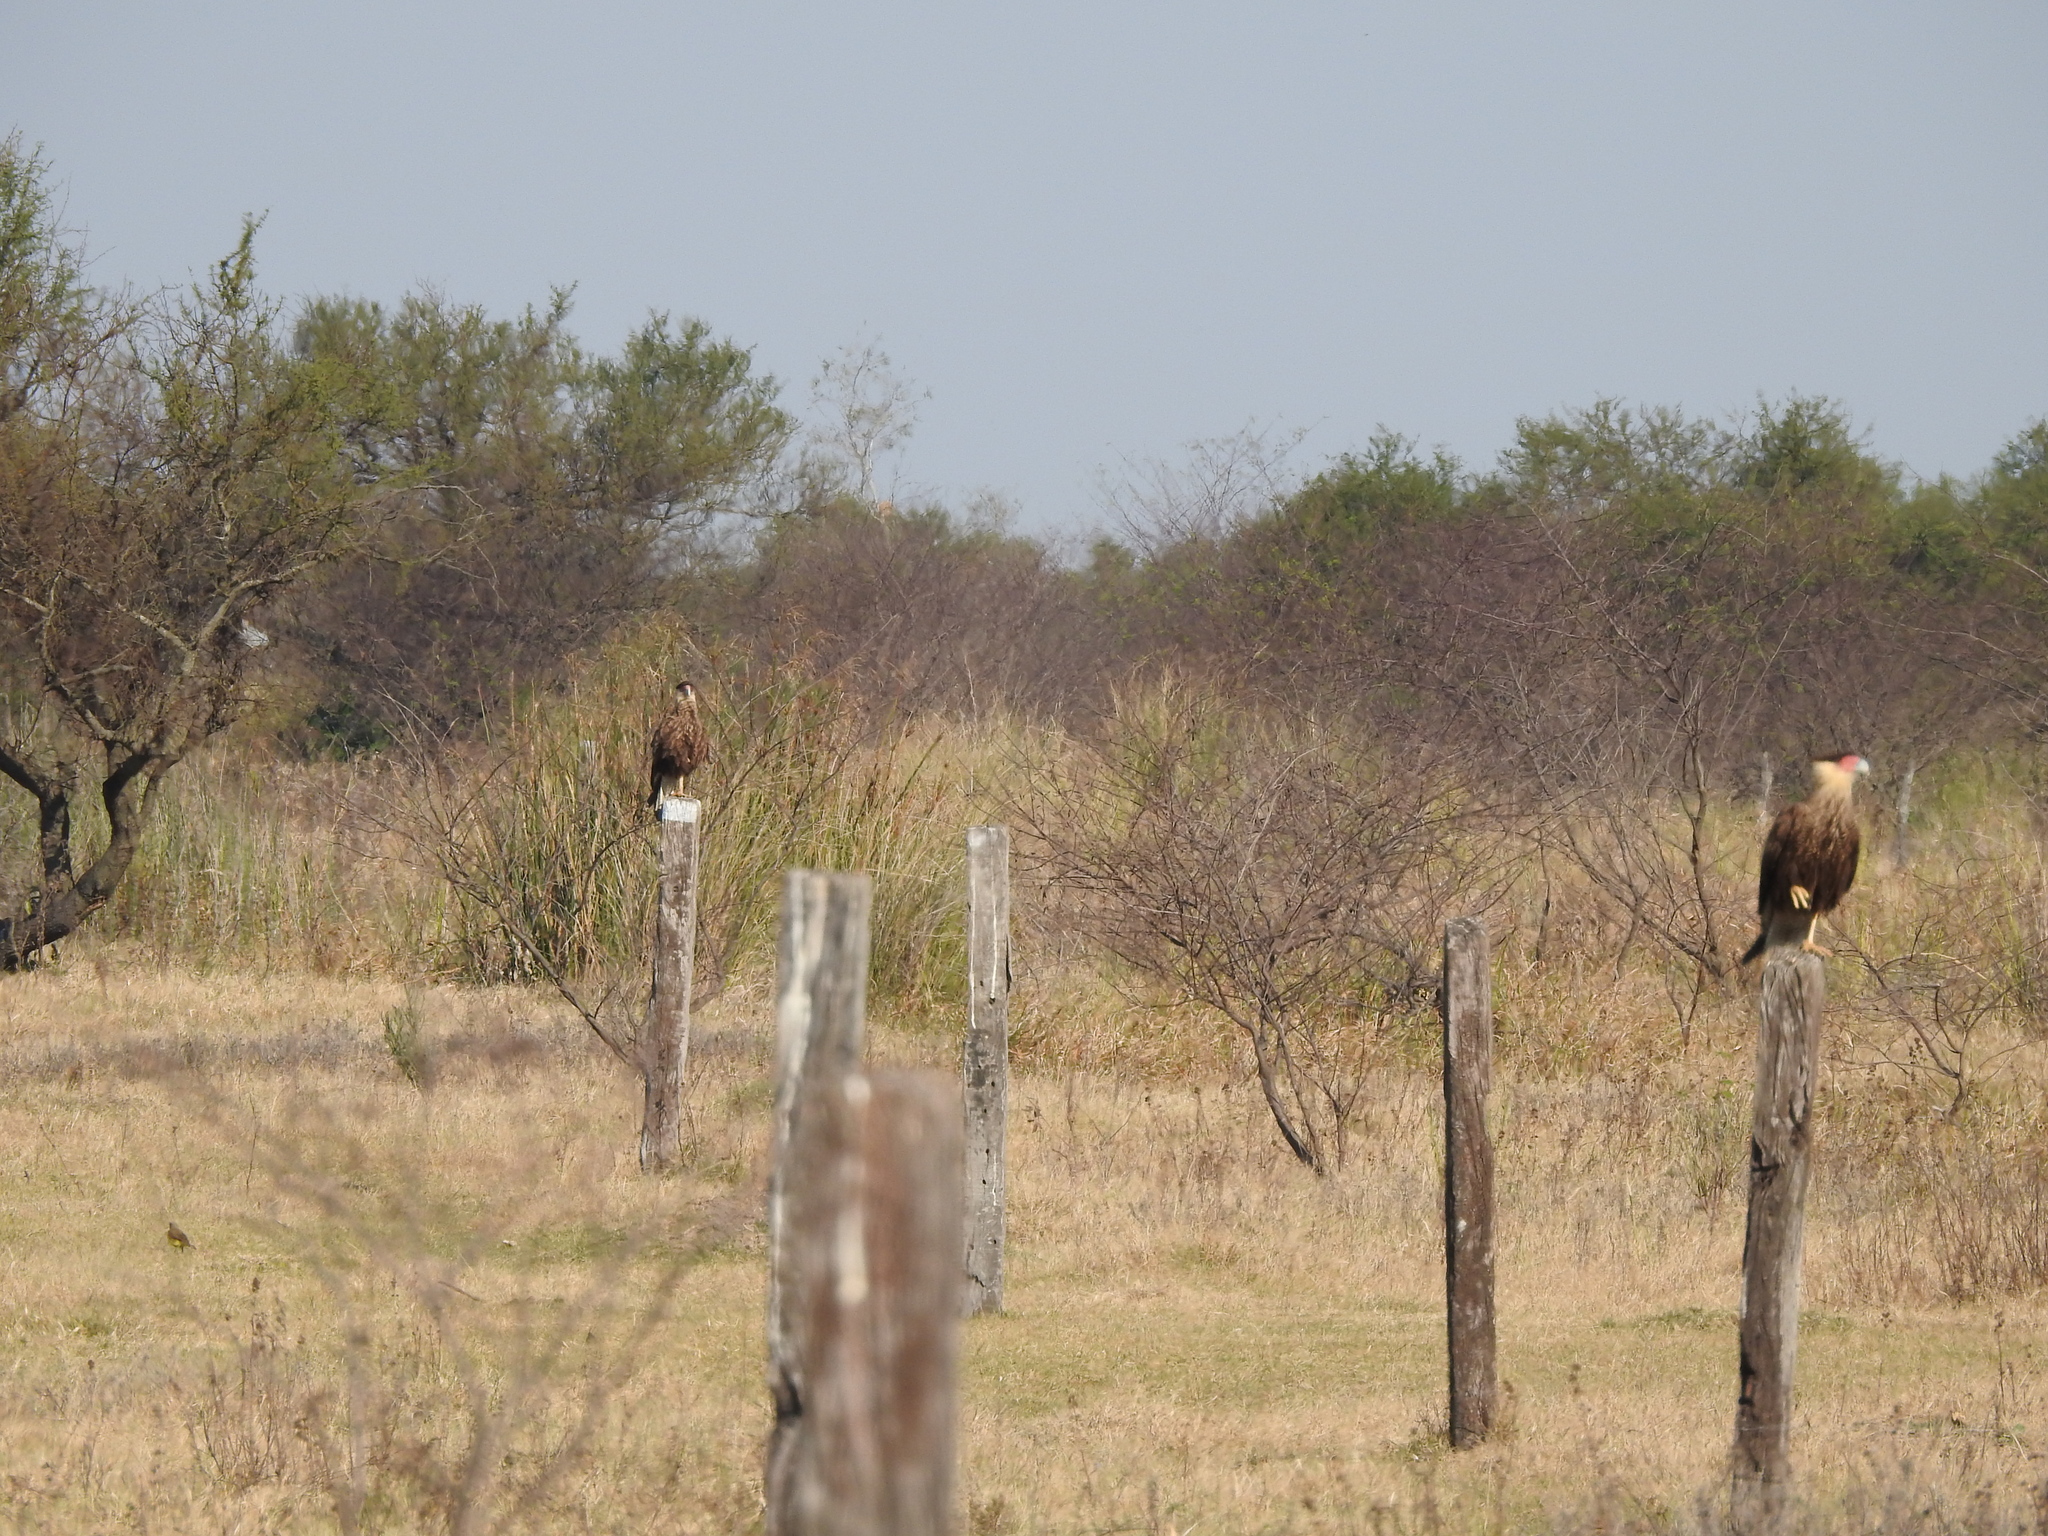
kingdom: Animalia
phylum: Chordata
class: Aves
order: Falconiformes
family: Falconidae
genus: Caracara
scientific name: Caracara plancus
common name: Southern caracara
